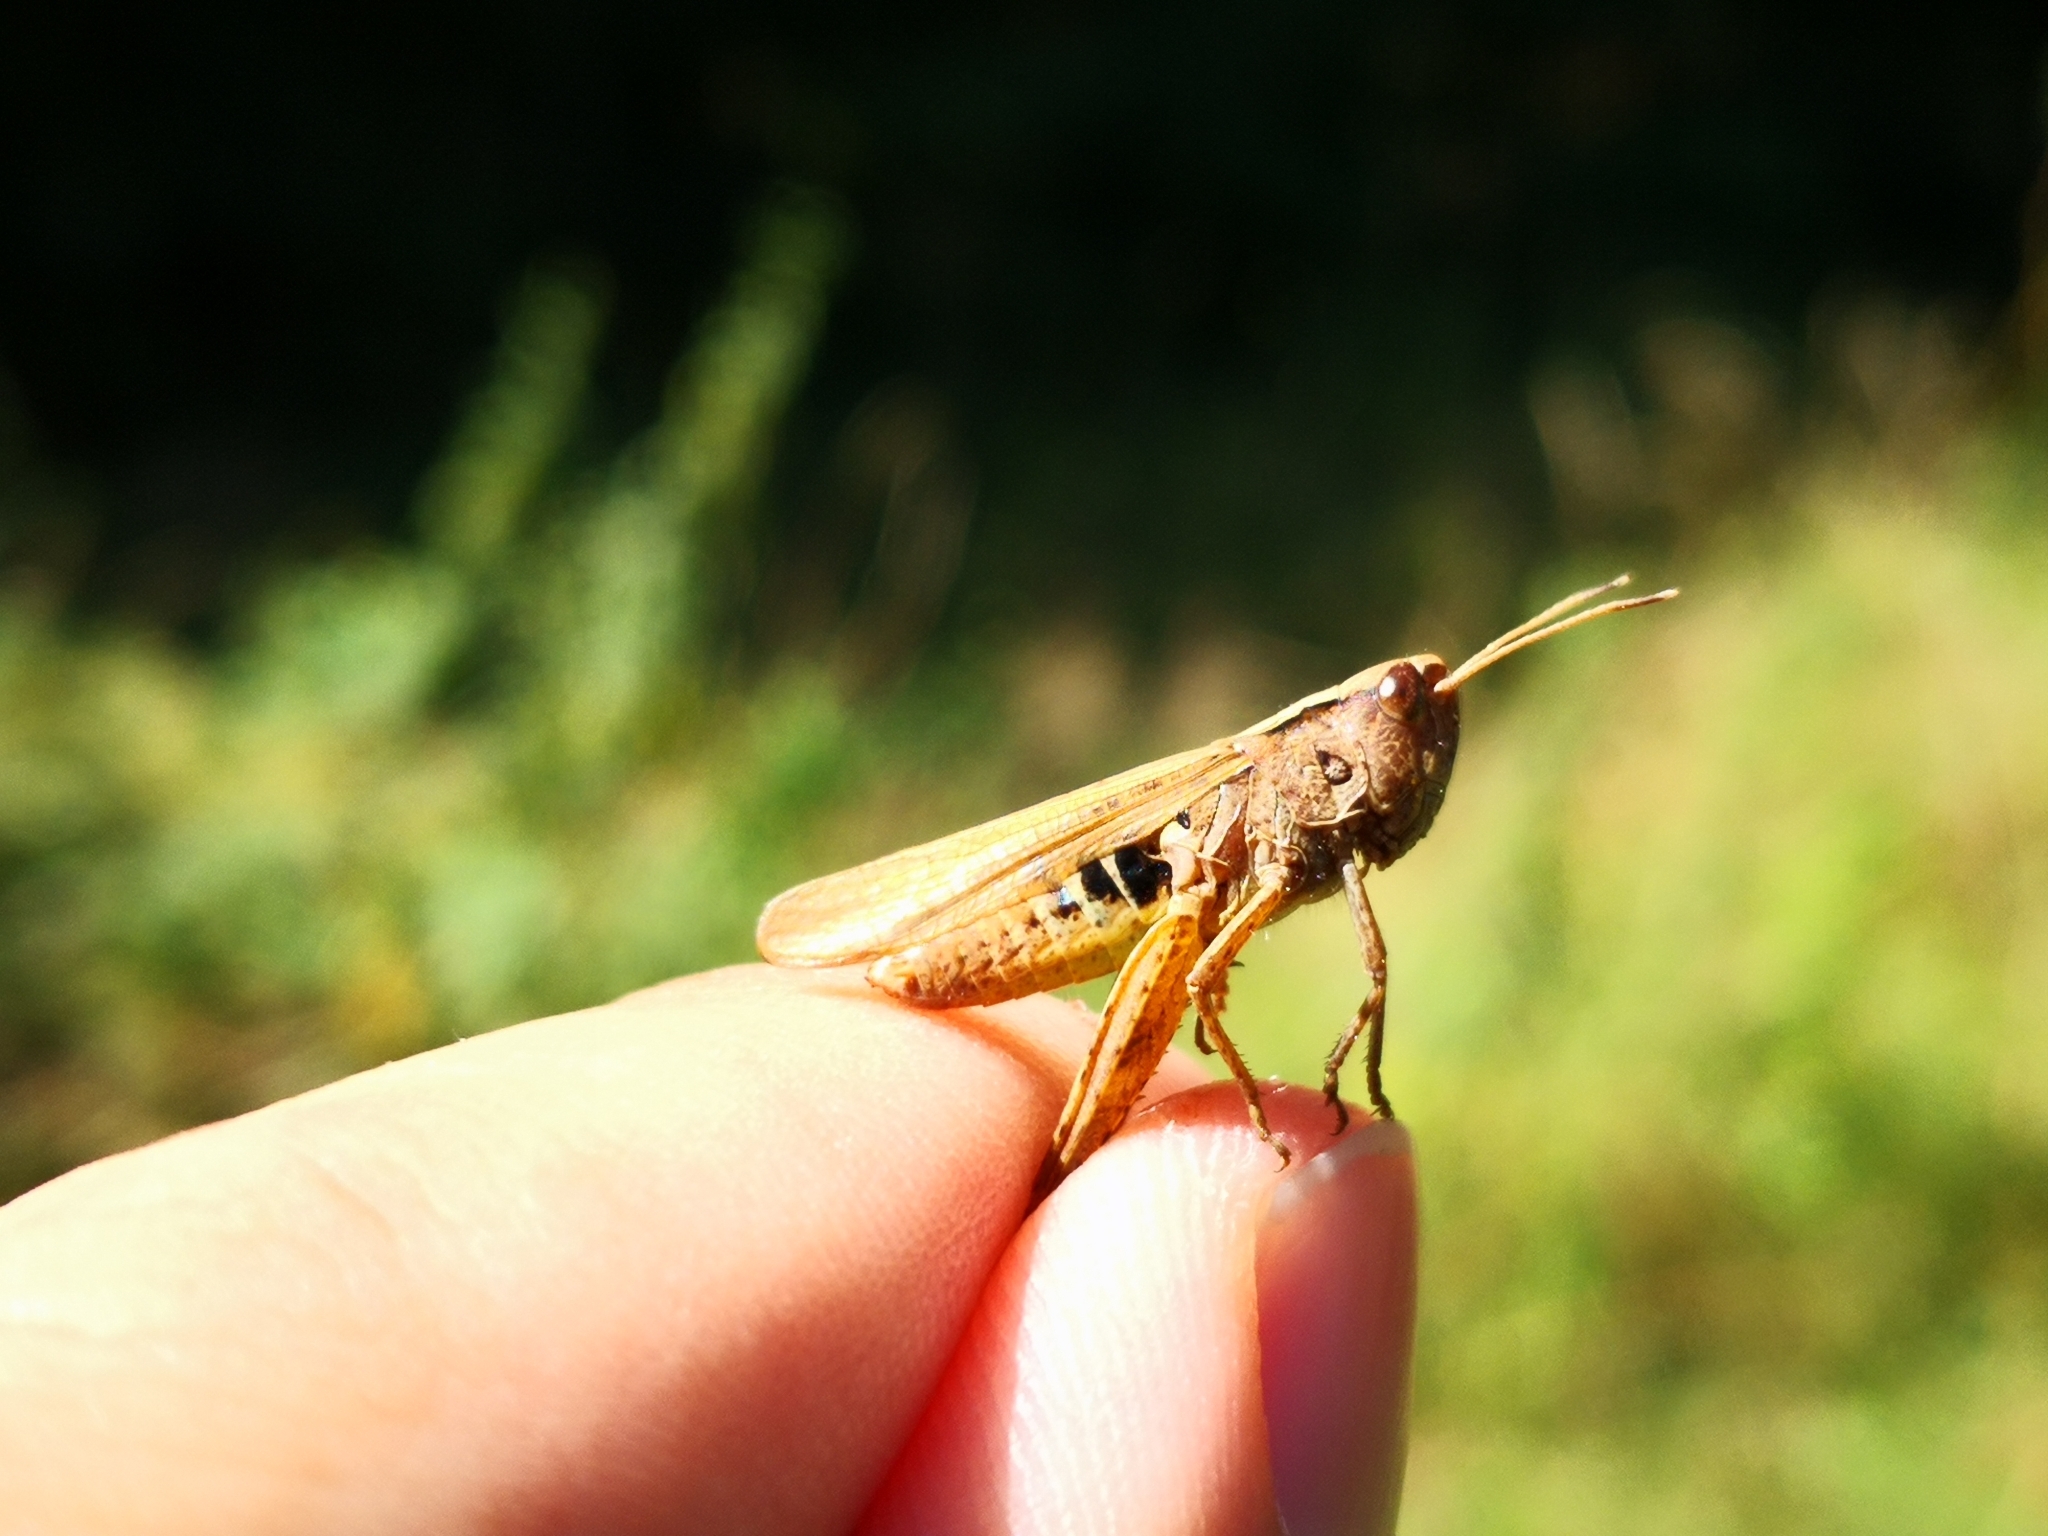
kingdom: Animalia
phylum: Arthropoda
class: Insecta
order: Orthoptera
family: Acrididae
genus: Gomphocerippus
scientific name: Gomphocerippus rufus
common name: Rufous grasshopper
